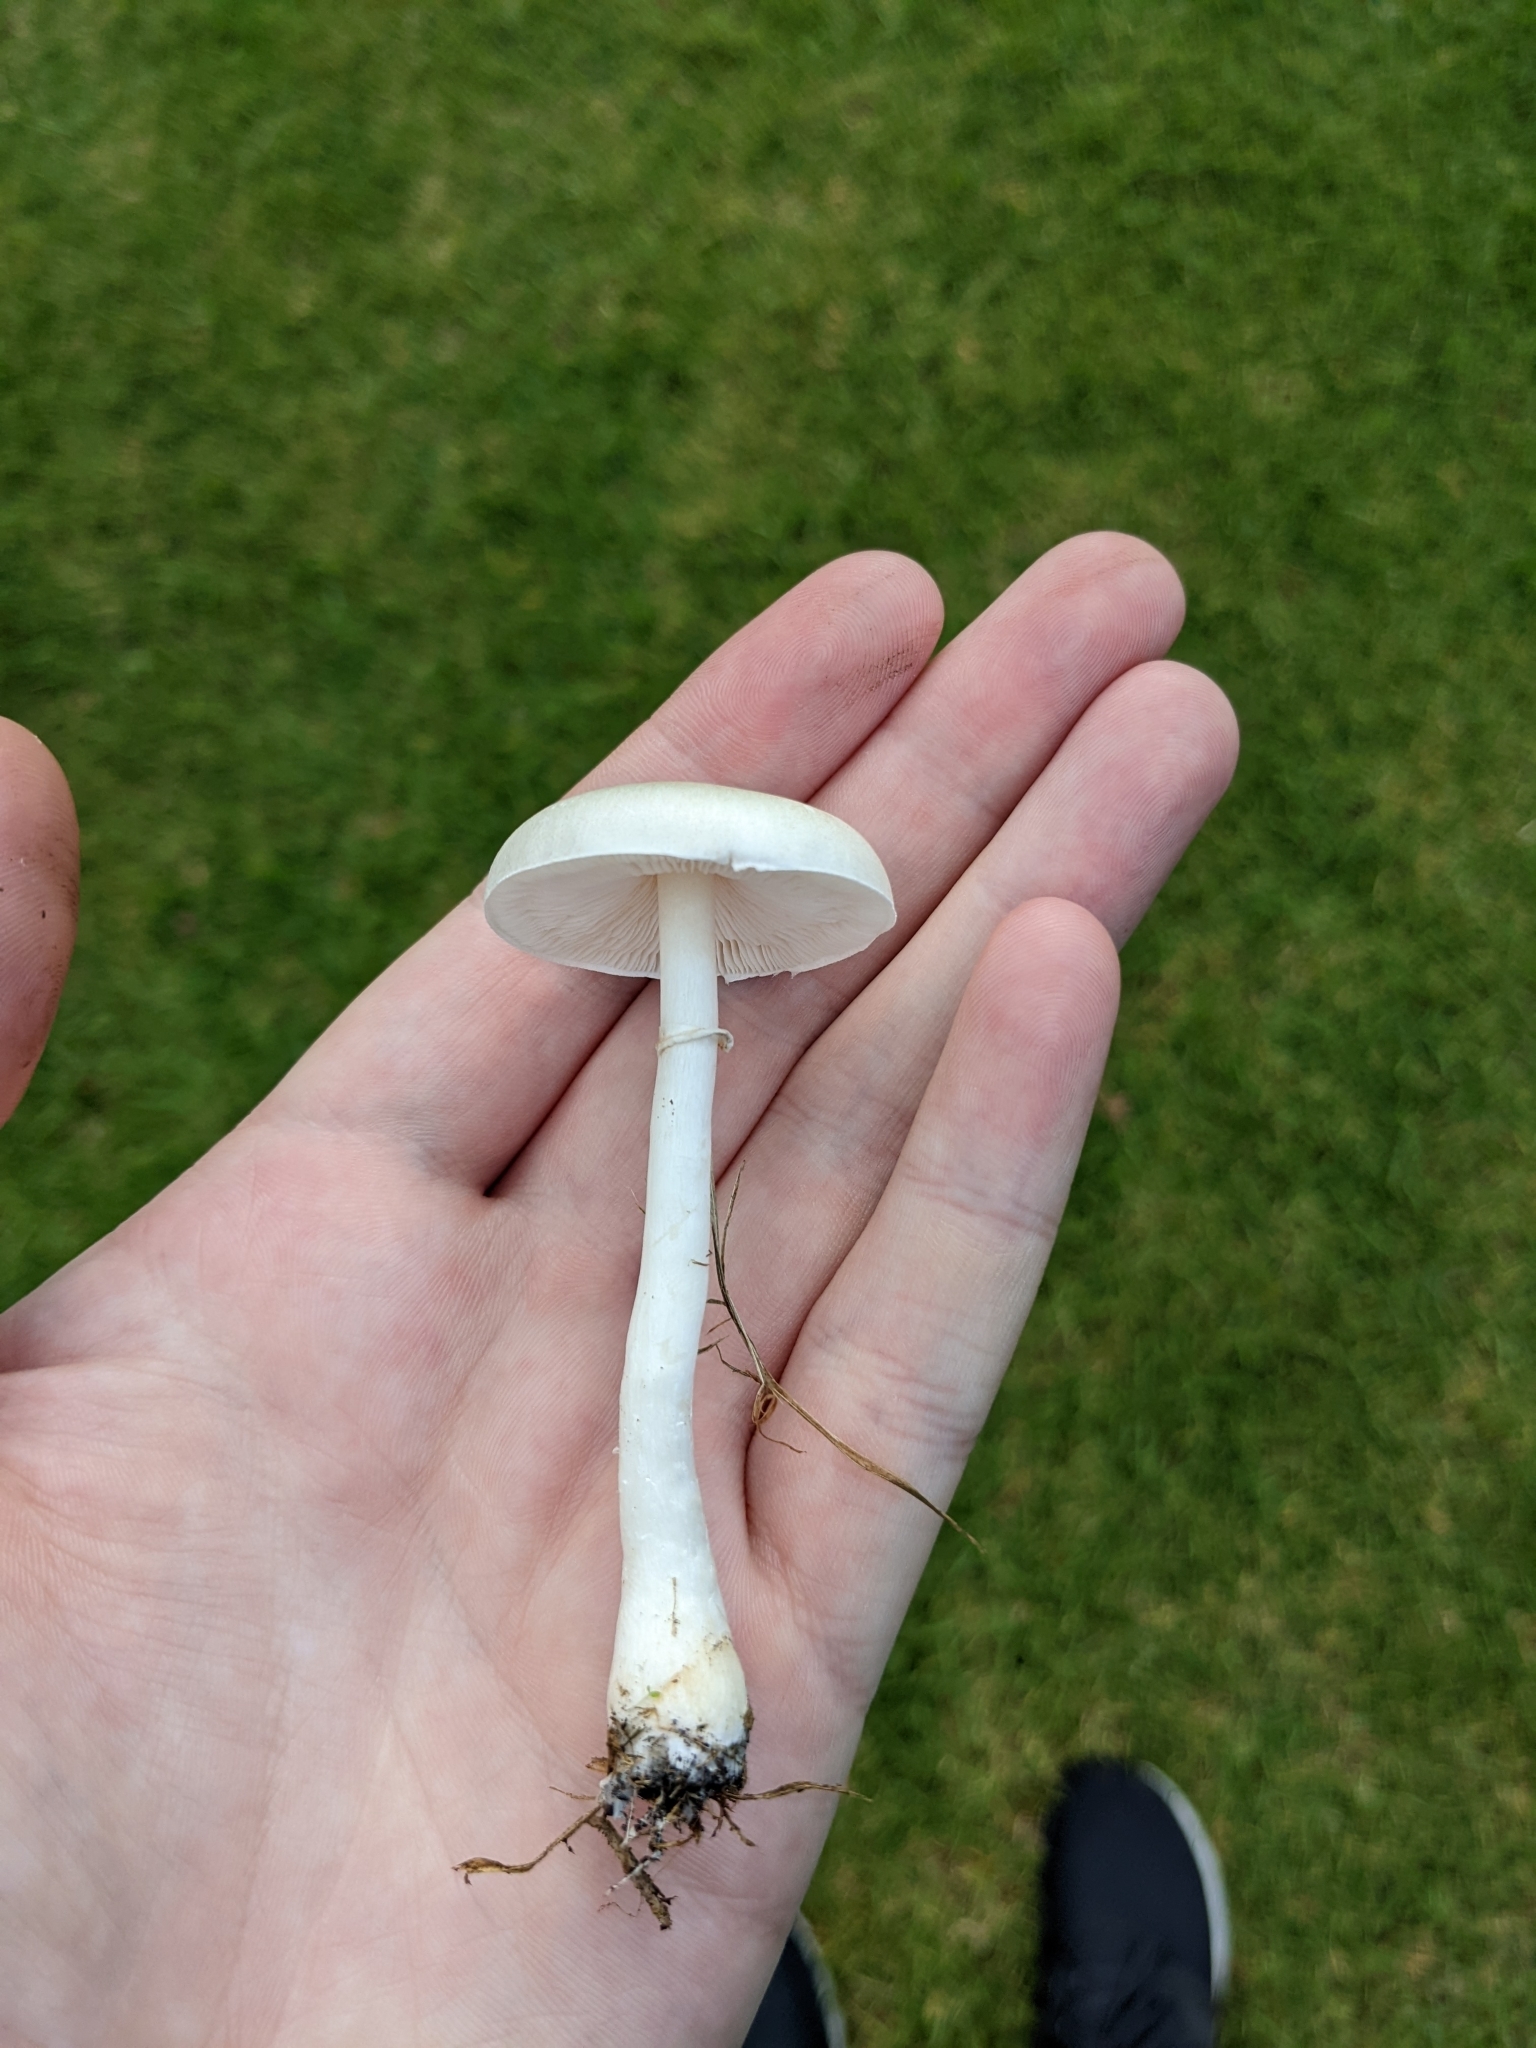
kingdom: Fungi
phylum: Basidiomycota
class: Agaricomycetes
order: Agaricales
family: Agaricaceae
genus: Leucoagaricus
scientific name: Leucoagaricus leucothites
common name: White dapperling
